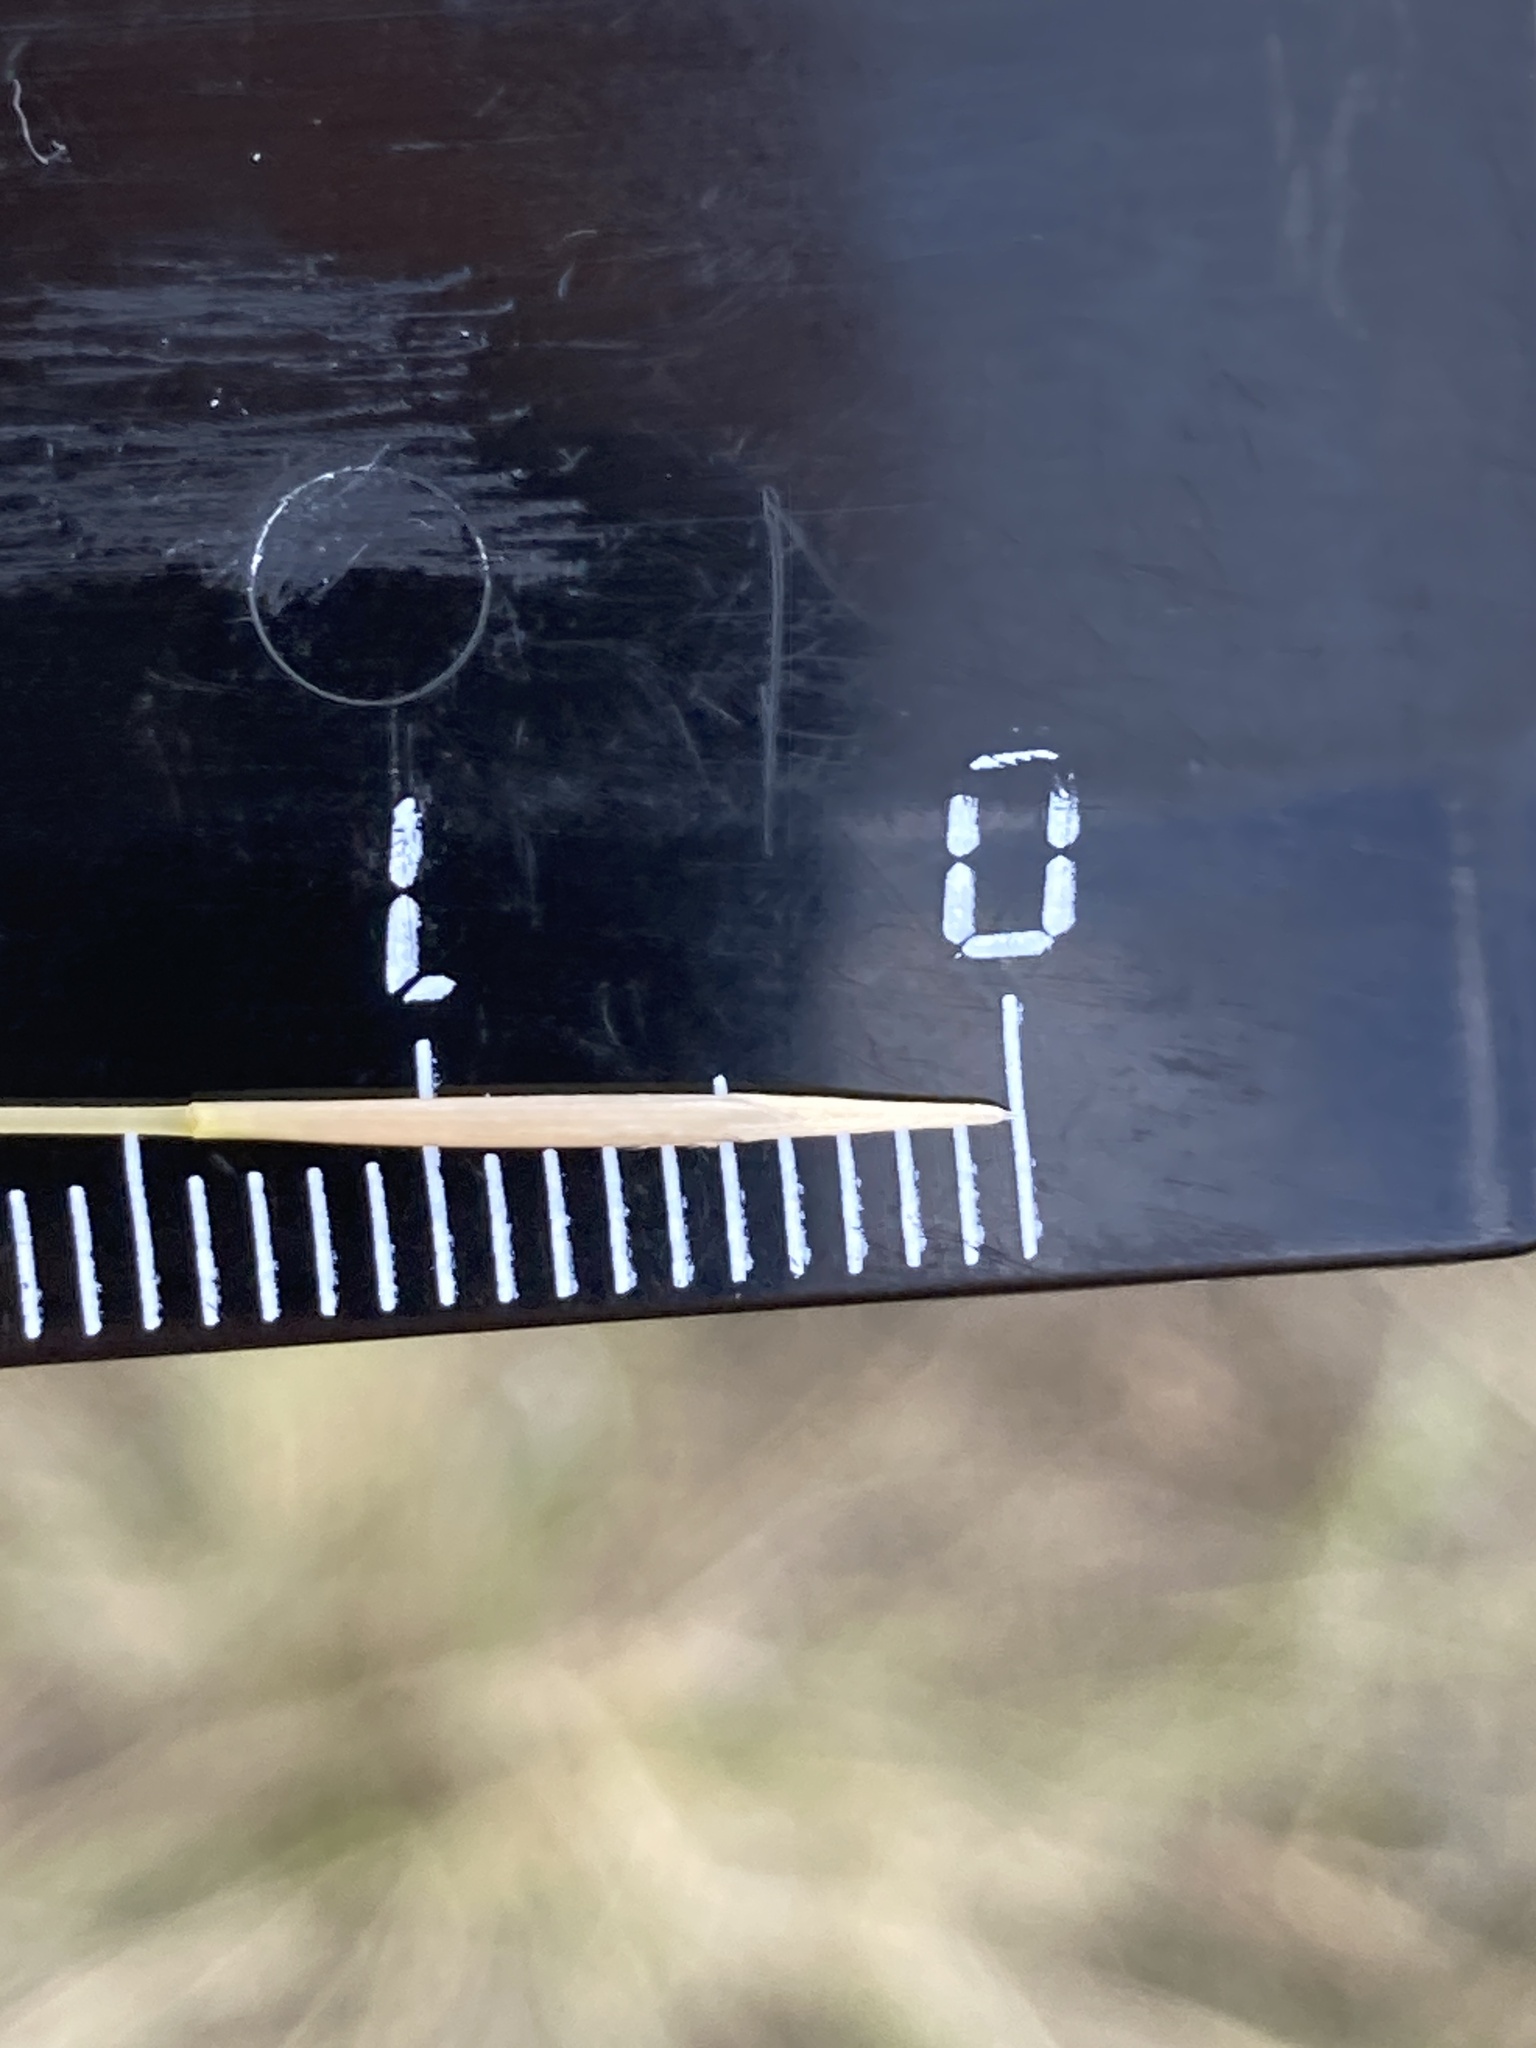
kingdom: Plantae
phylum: Tracheophyta
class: Liliopsida
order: Poales
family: Poaceae
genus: Stipa
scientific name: Stipa capillata
